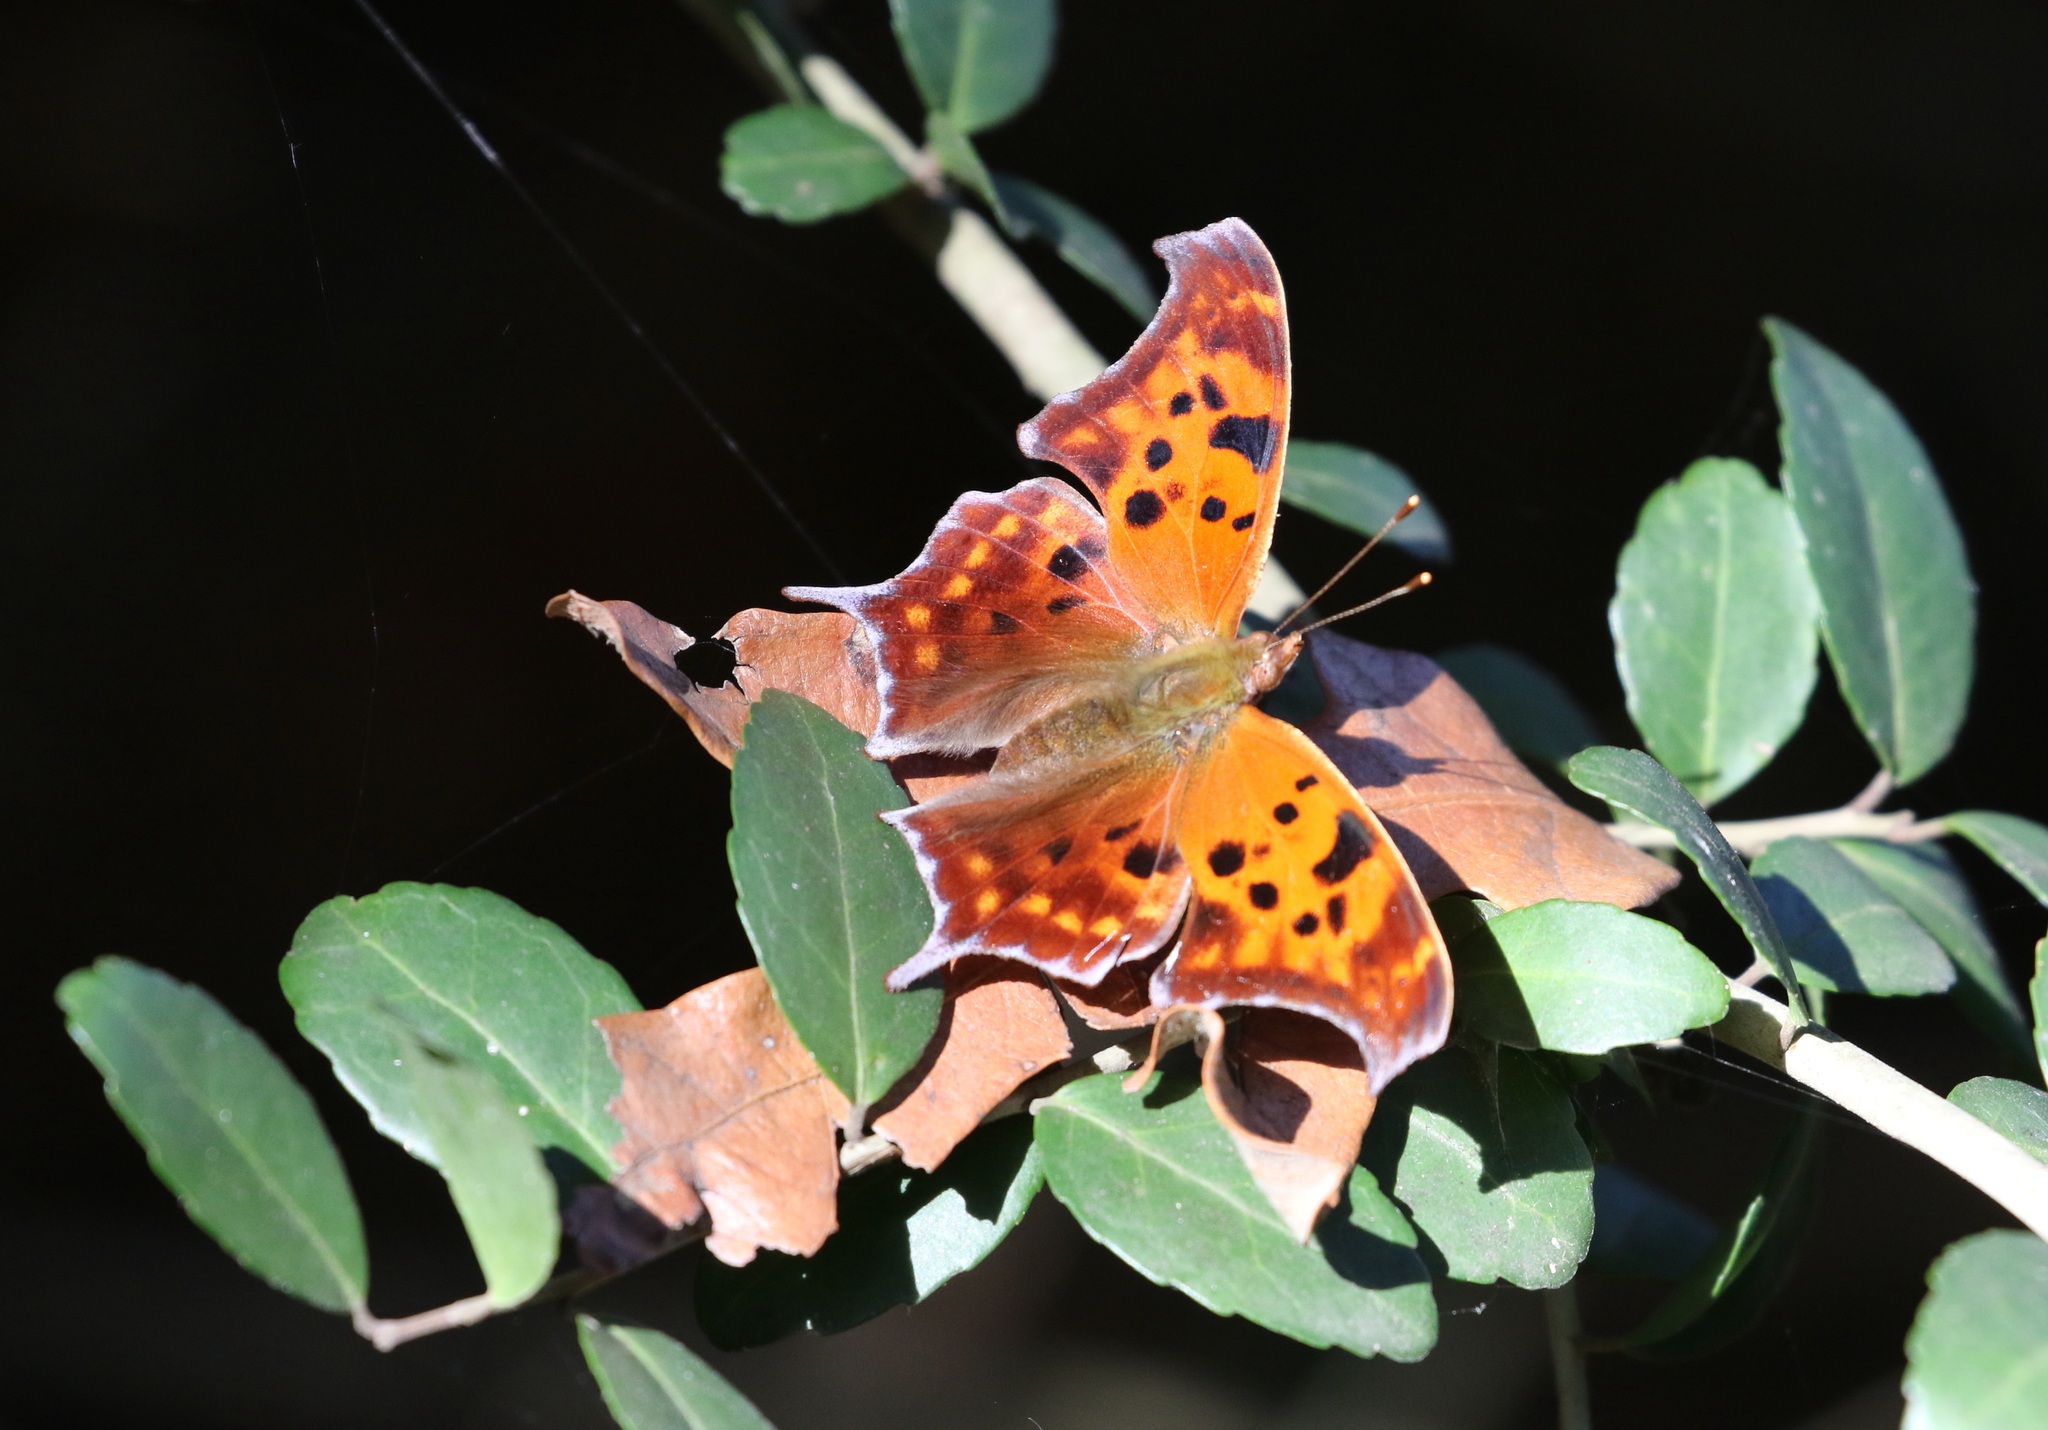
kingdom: Animalia
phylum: Arthropoda
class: Insecta
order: Lepidoptera
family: Nymphalidae
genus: Polygonia
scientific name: Polygonia interrogationis
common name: Question mark
